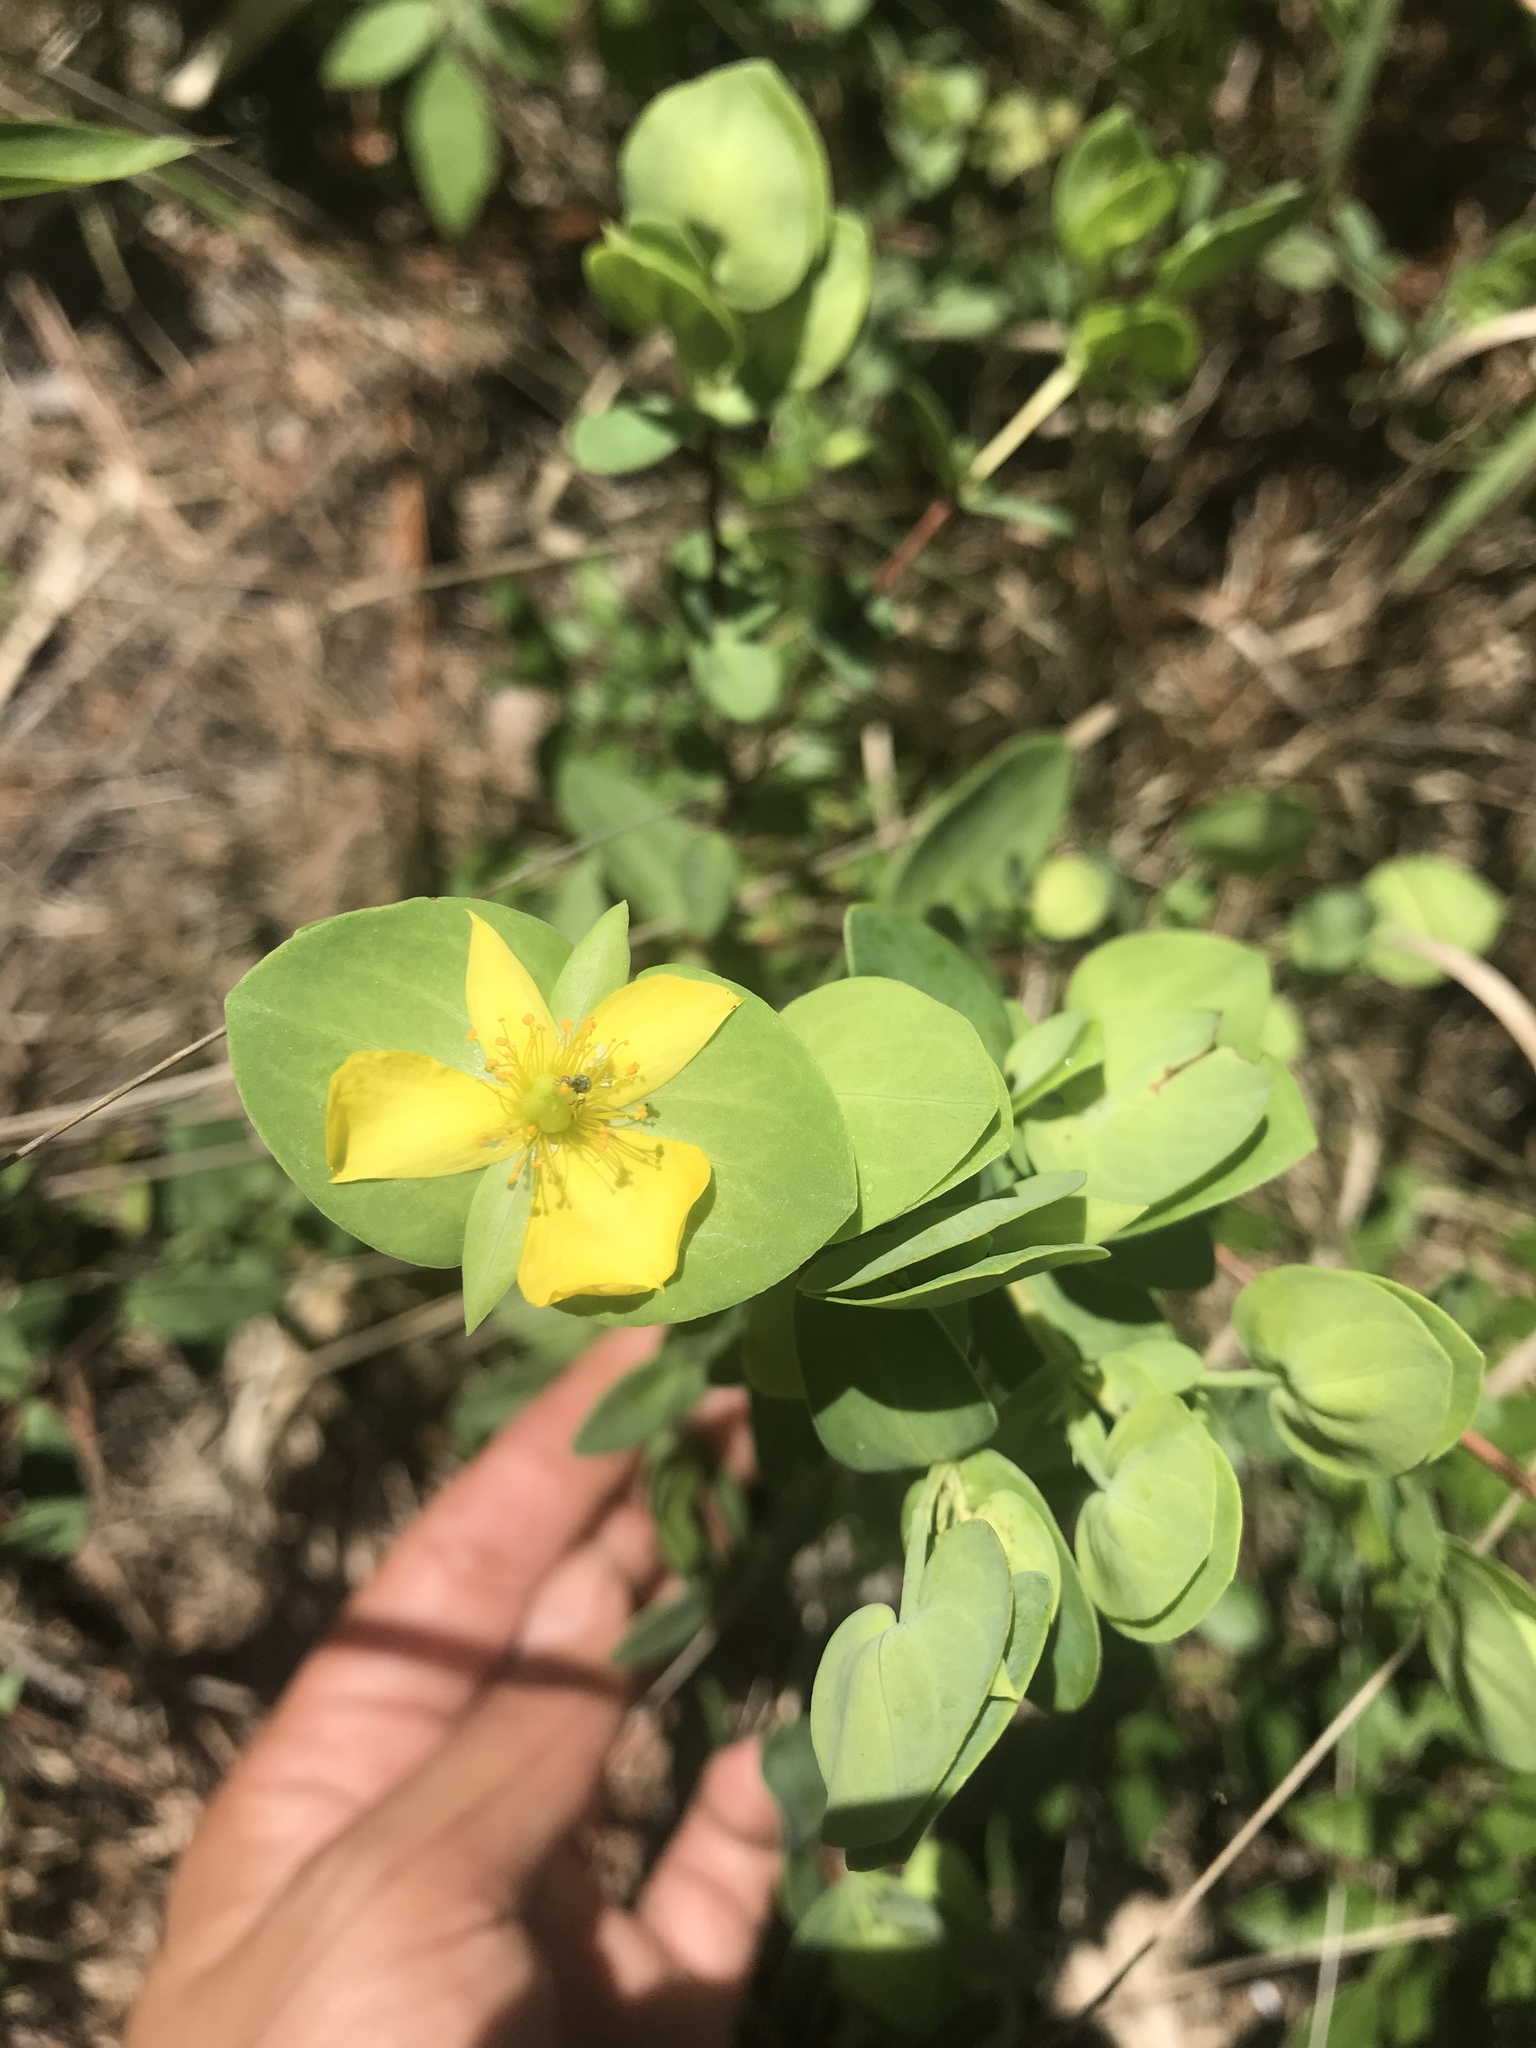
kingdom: Plantae
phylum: Tracheophyta
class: Magnoliopsida
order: Malpighiales
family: Hypericaceae
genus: Hypericum
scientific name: Hypericum crux-andreae
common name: St.-peter's-wort
